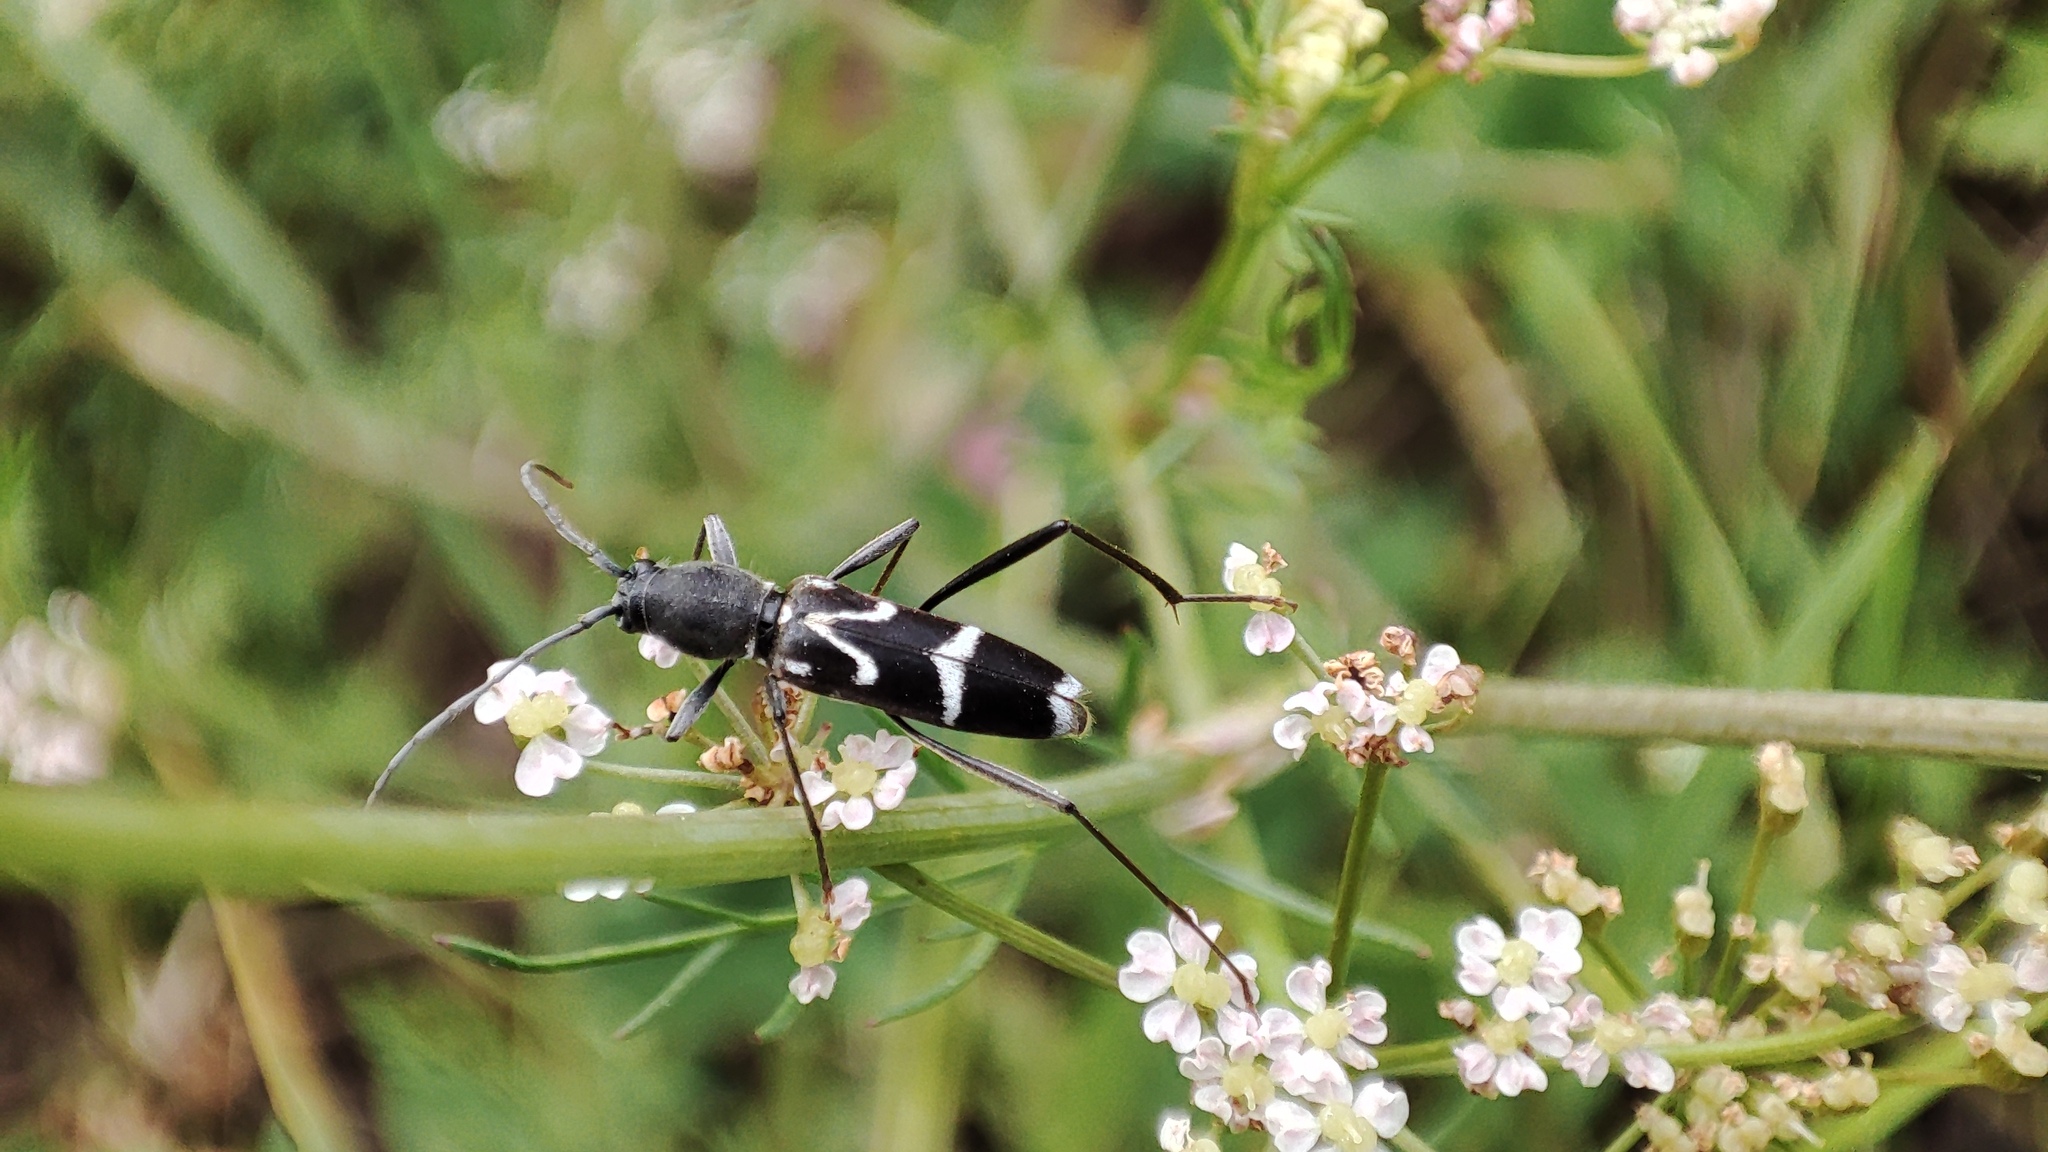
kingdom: Animalia
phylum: Arthropoda
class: Insecta
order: Coleoptera
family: Cerambycidae
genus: Rhaphuma
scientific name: Rhaphuma gracilipes
